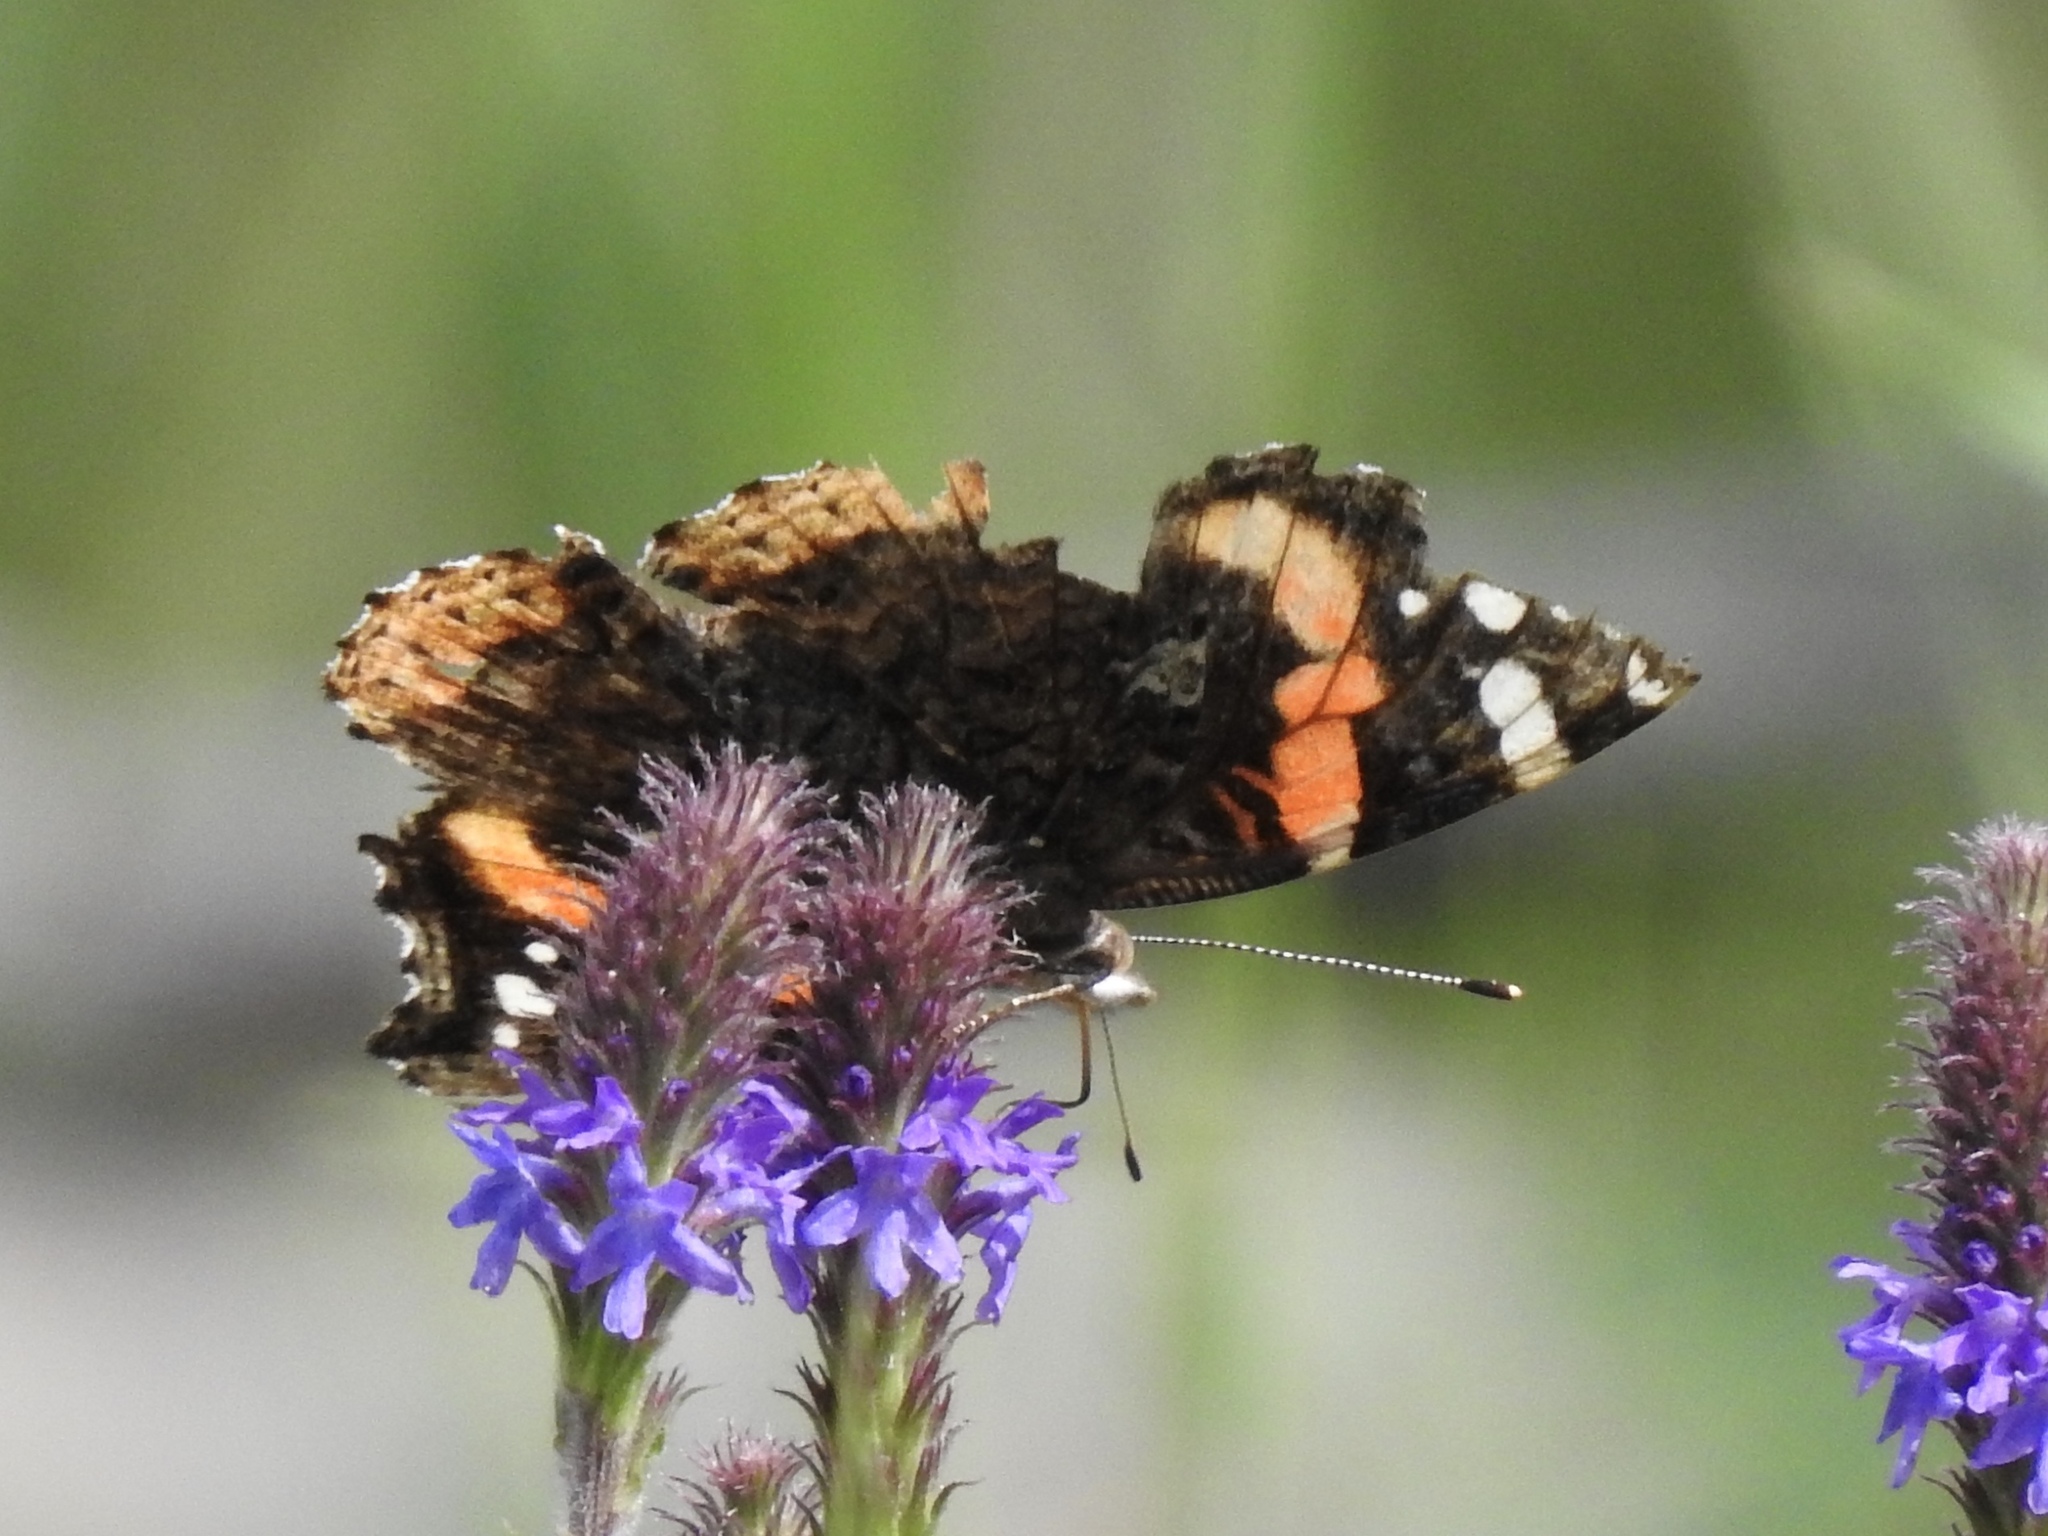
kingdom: Animalia
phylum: Arthropoda
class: Insecta
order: Lepidoptera
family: Nymphalidae
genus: Vanessa
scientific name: Vanessa atalanta
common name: Red admiral
